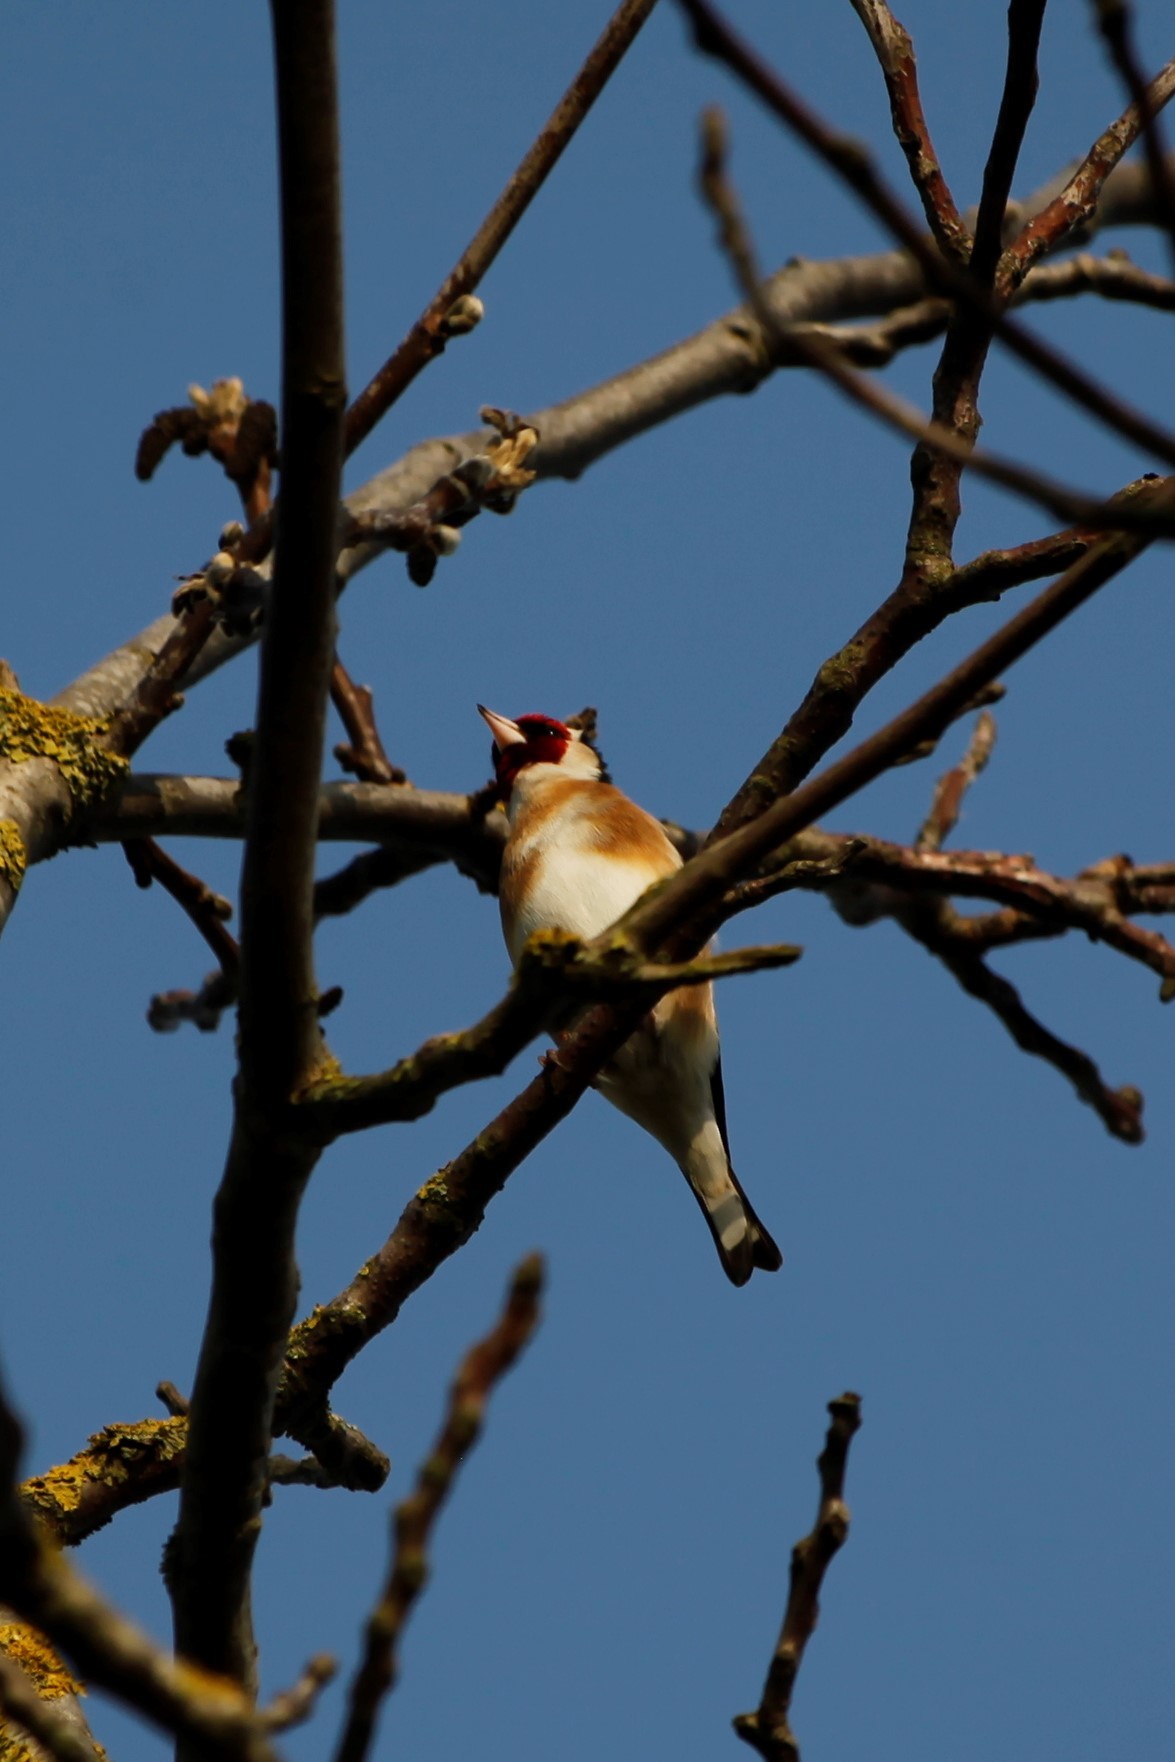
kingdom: Animalia
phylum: Chordata
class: Aves
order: Passeriformes
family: Fringillidae
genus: Carduelis
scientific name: Carduelis carduelis
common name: European goldfinch
